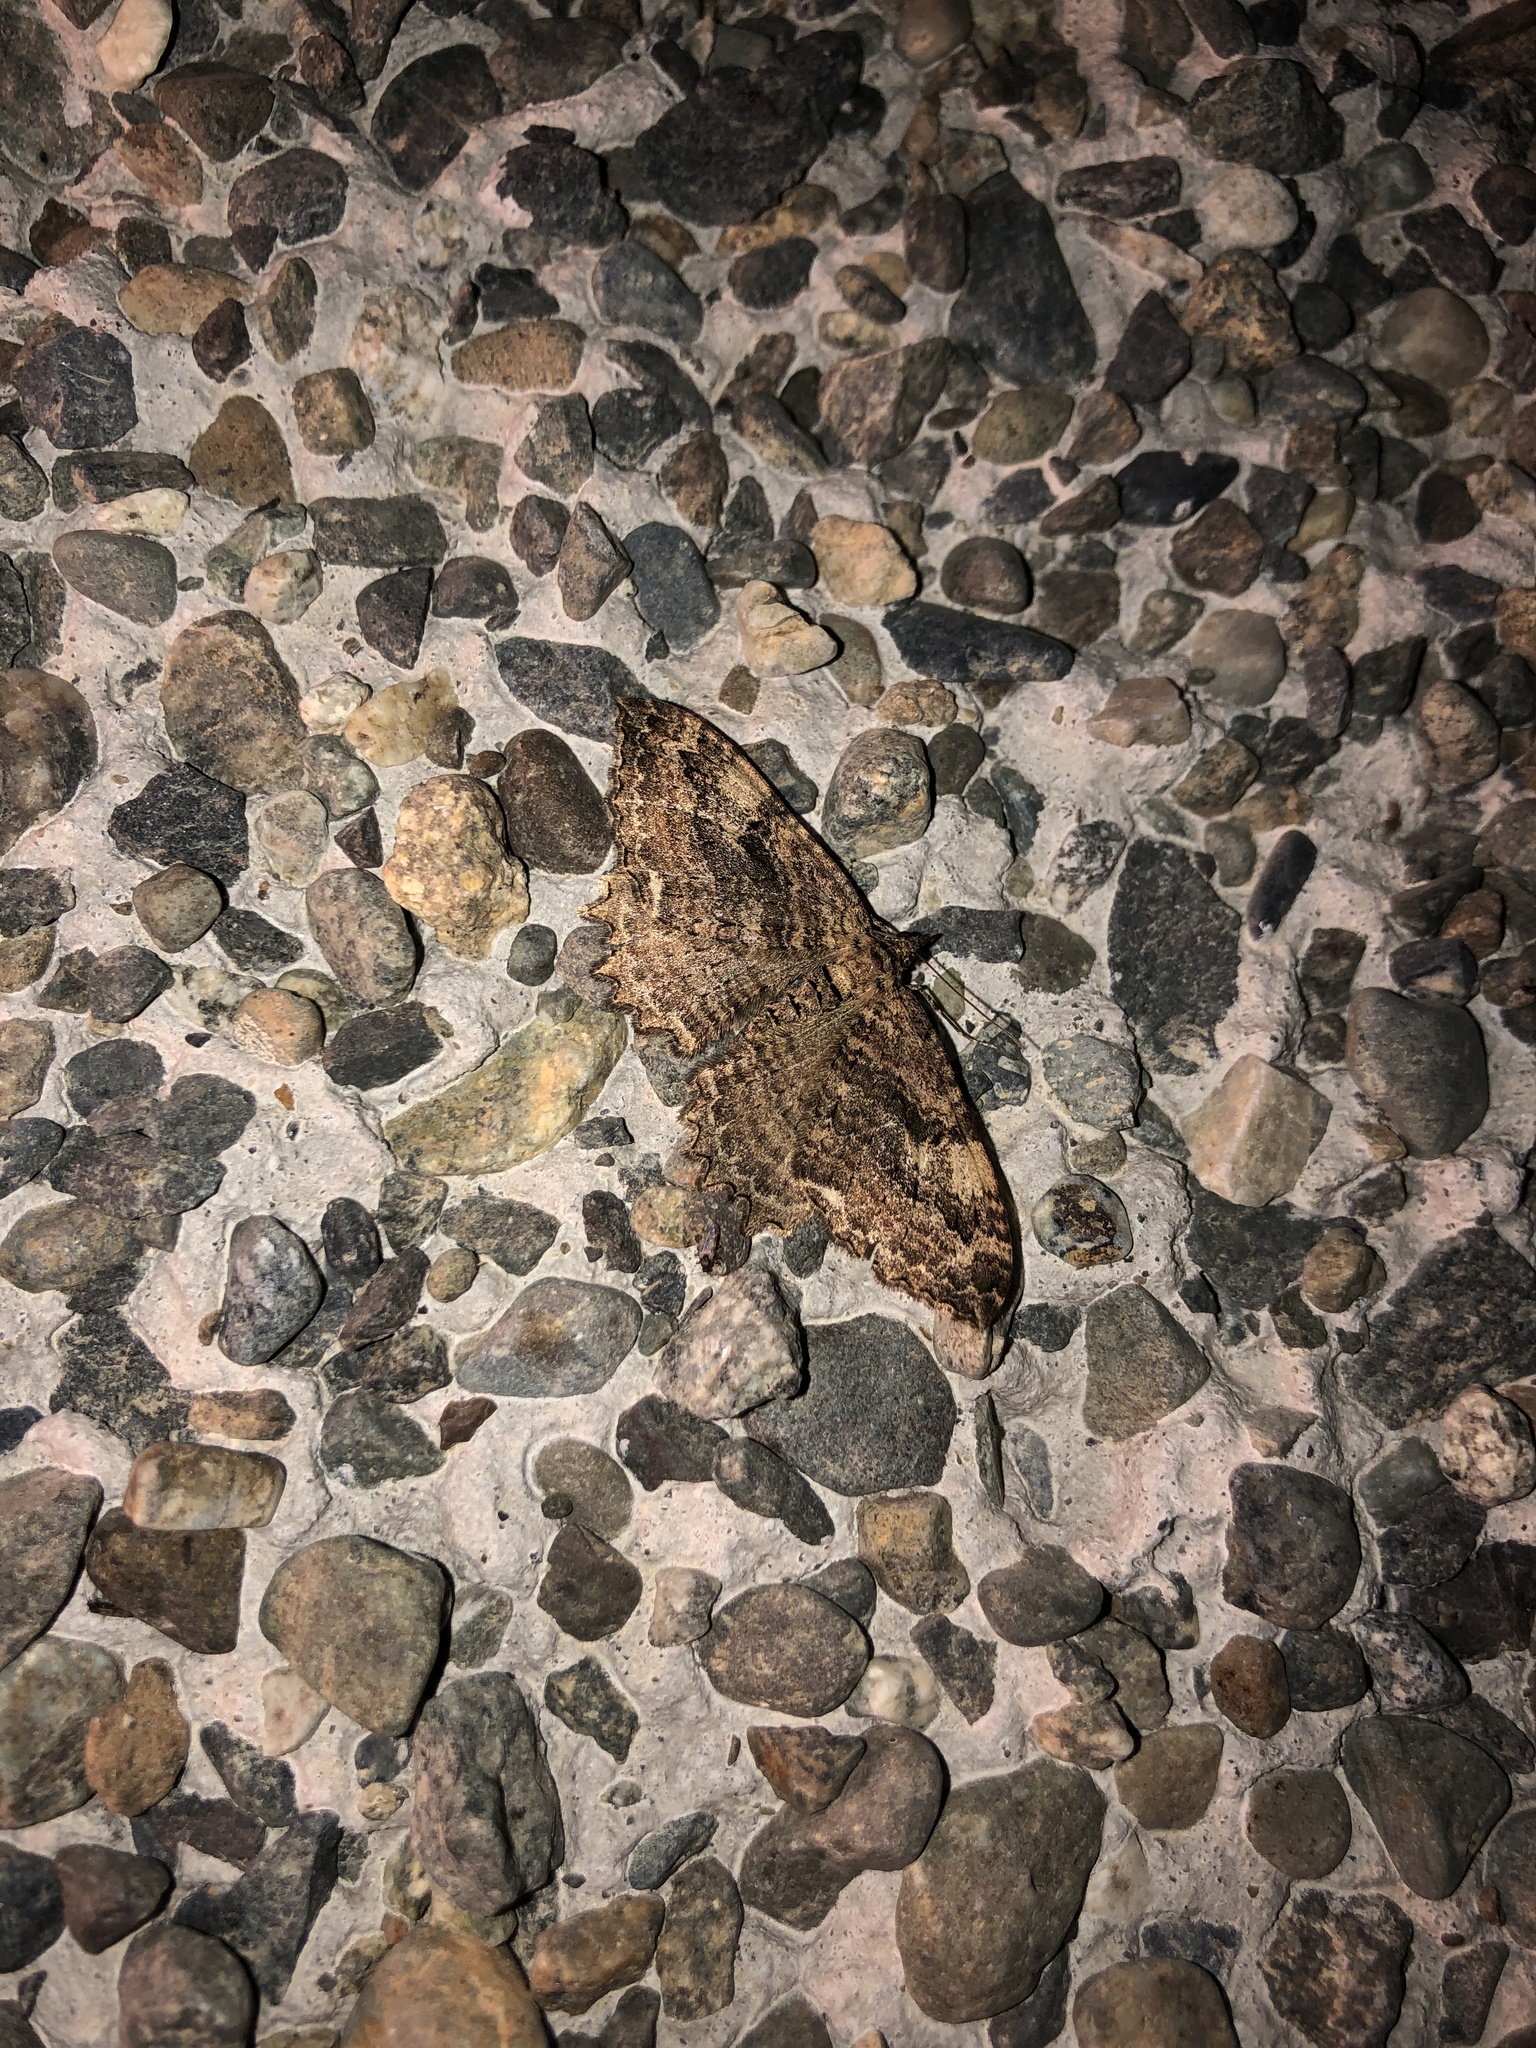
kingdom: Animalia
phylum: Arthropoda
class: Insecta
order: Lepidoptera
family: Geometridae
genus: Rheumaptera
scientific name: Rheumaptera
